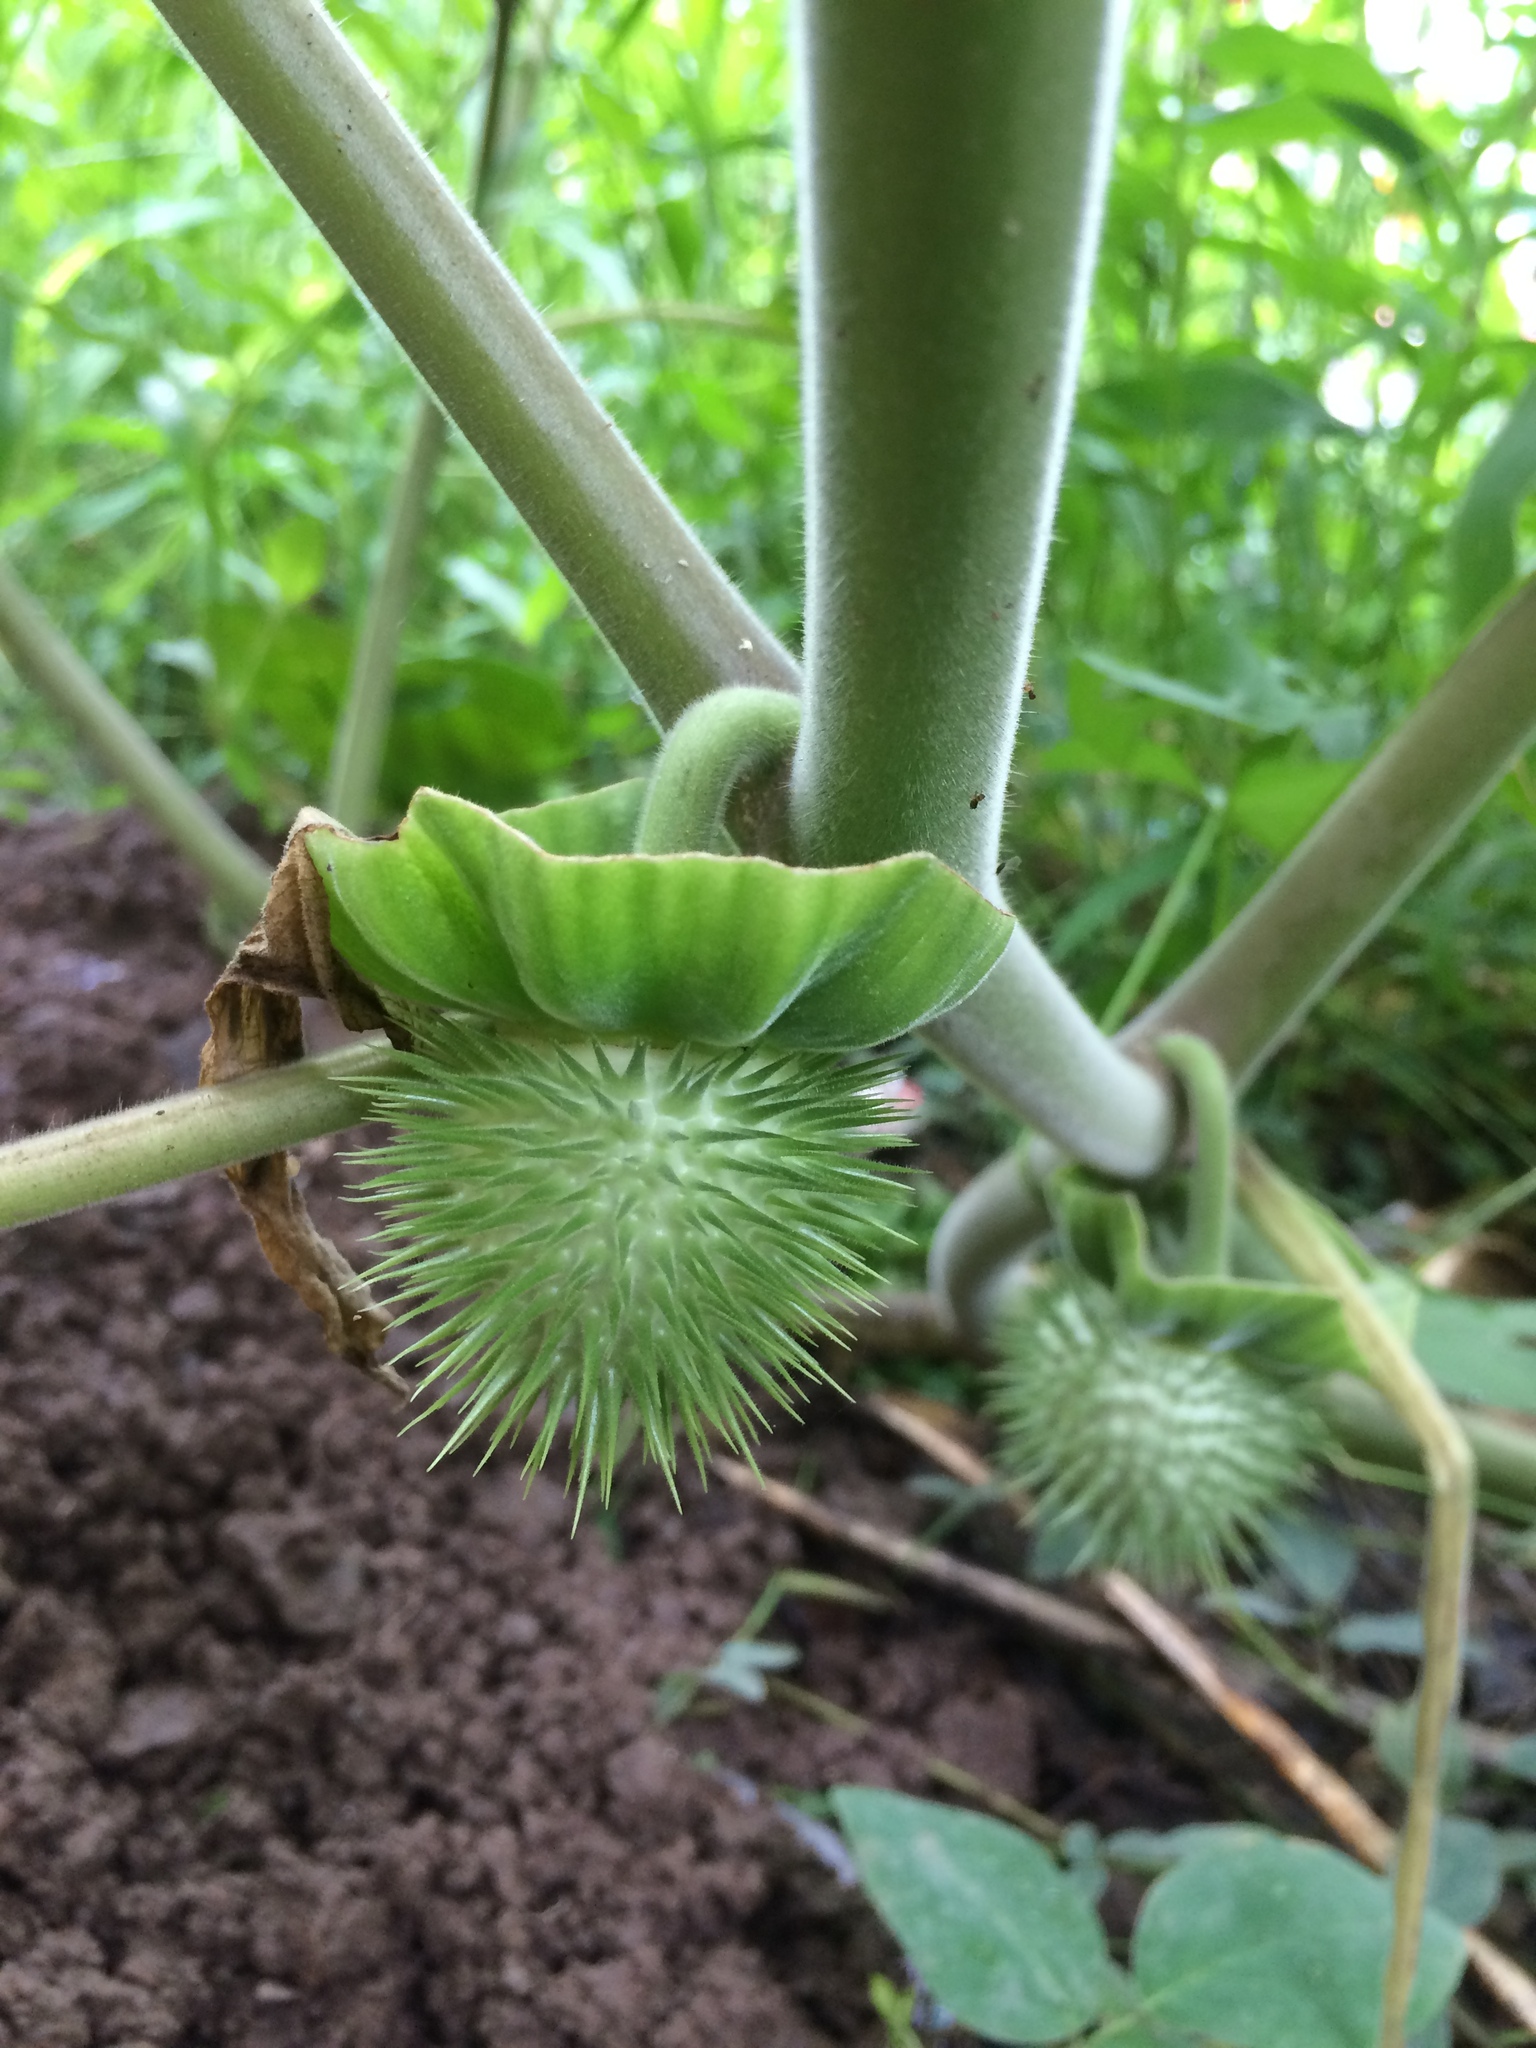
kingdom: Plantae
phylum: Tracheophyta
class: Magnoliopsida
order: Solanales
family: Solanaceae
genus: Datura
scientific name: Datura innoxia
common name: Downy thorn-apple
